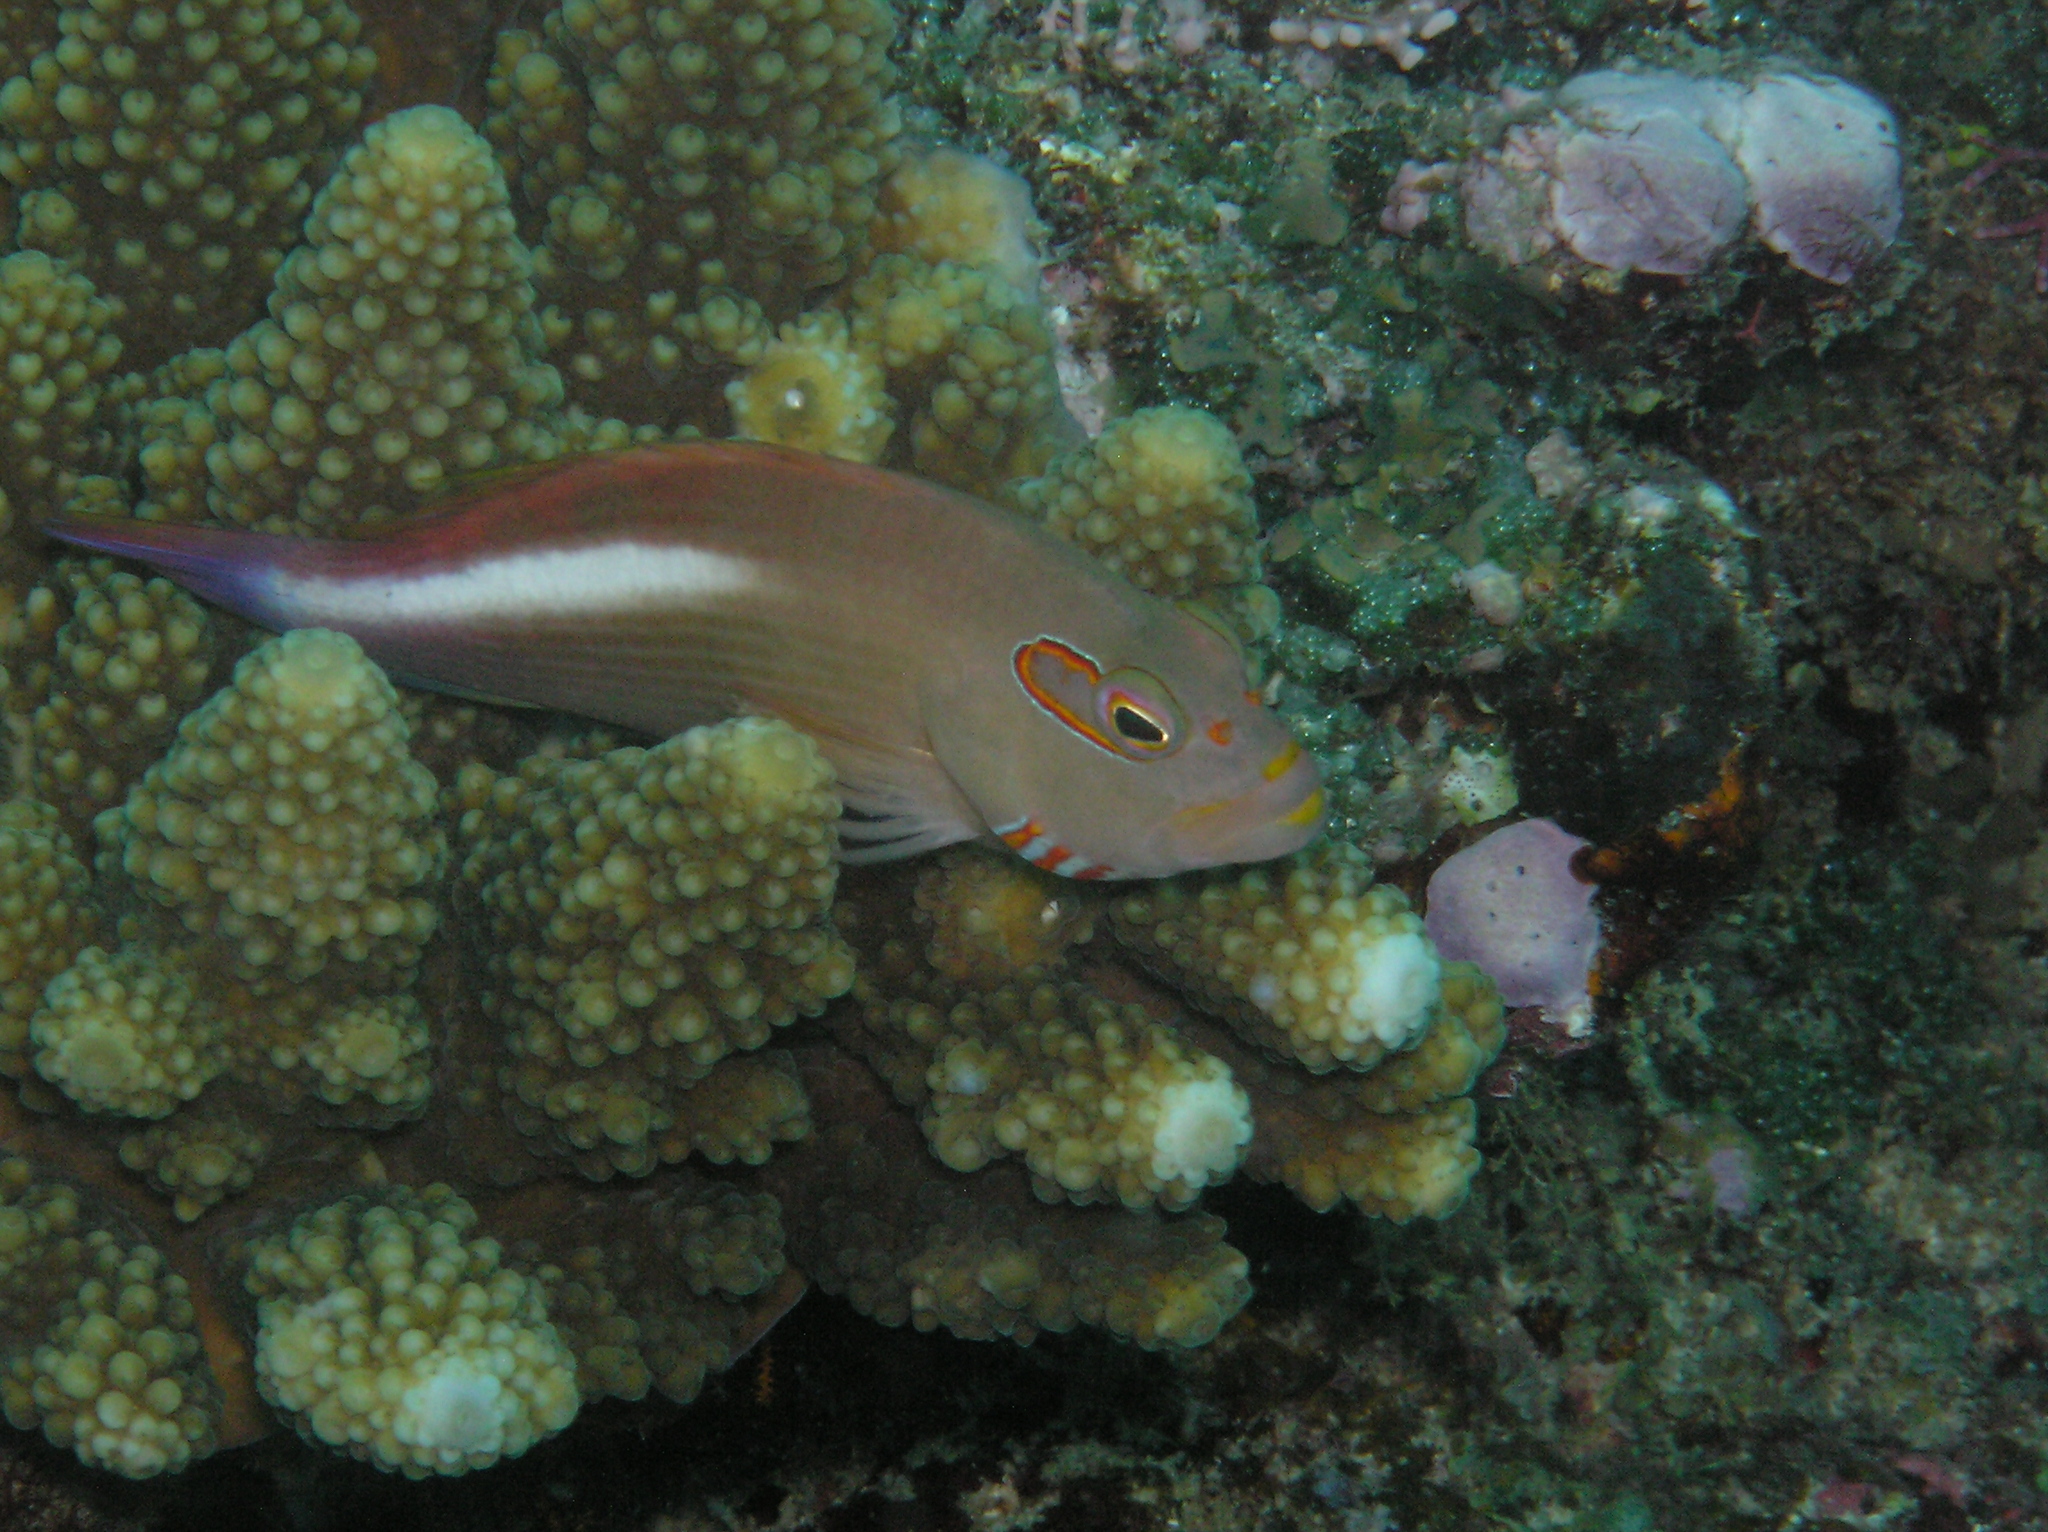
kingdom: Animalia
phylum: Chordata
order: Perciformes
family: Cirrhitidae
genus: Paracirrhites
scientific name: Paracirrhites arcatus
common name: Arc-eye hawkfish
